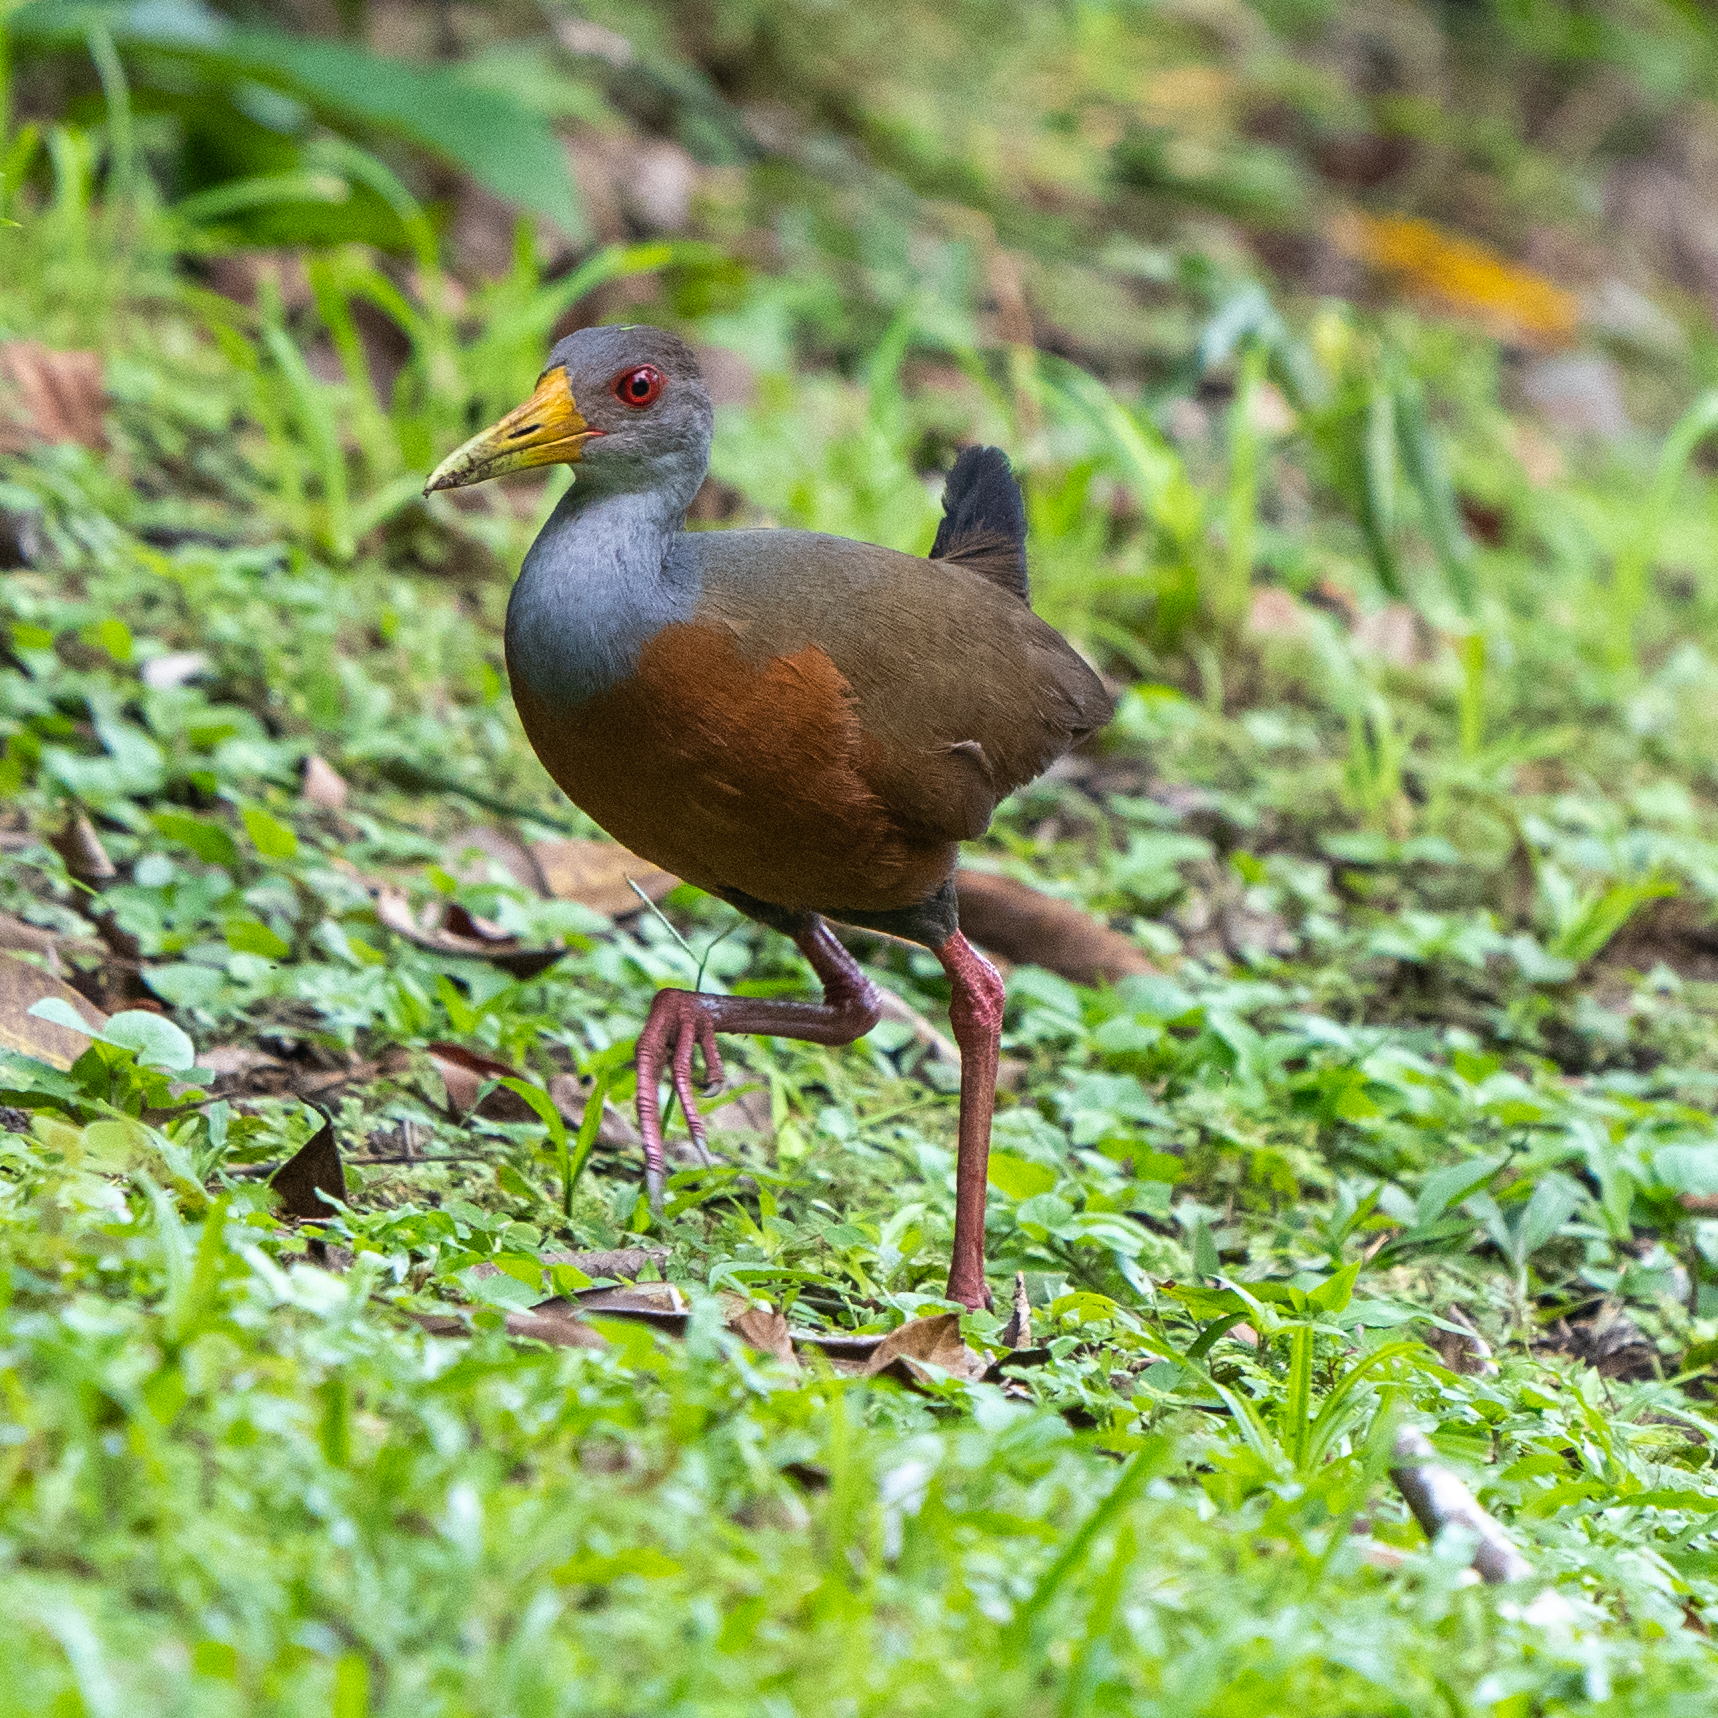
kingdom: Animalia
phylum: Chordata
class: Aves
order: Gruiformes
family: Rallidae
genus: Aramides
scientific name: Aramides cajanea
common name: Gray-necked wood-rail
